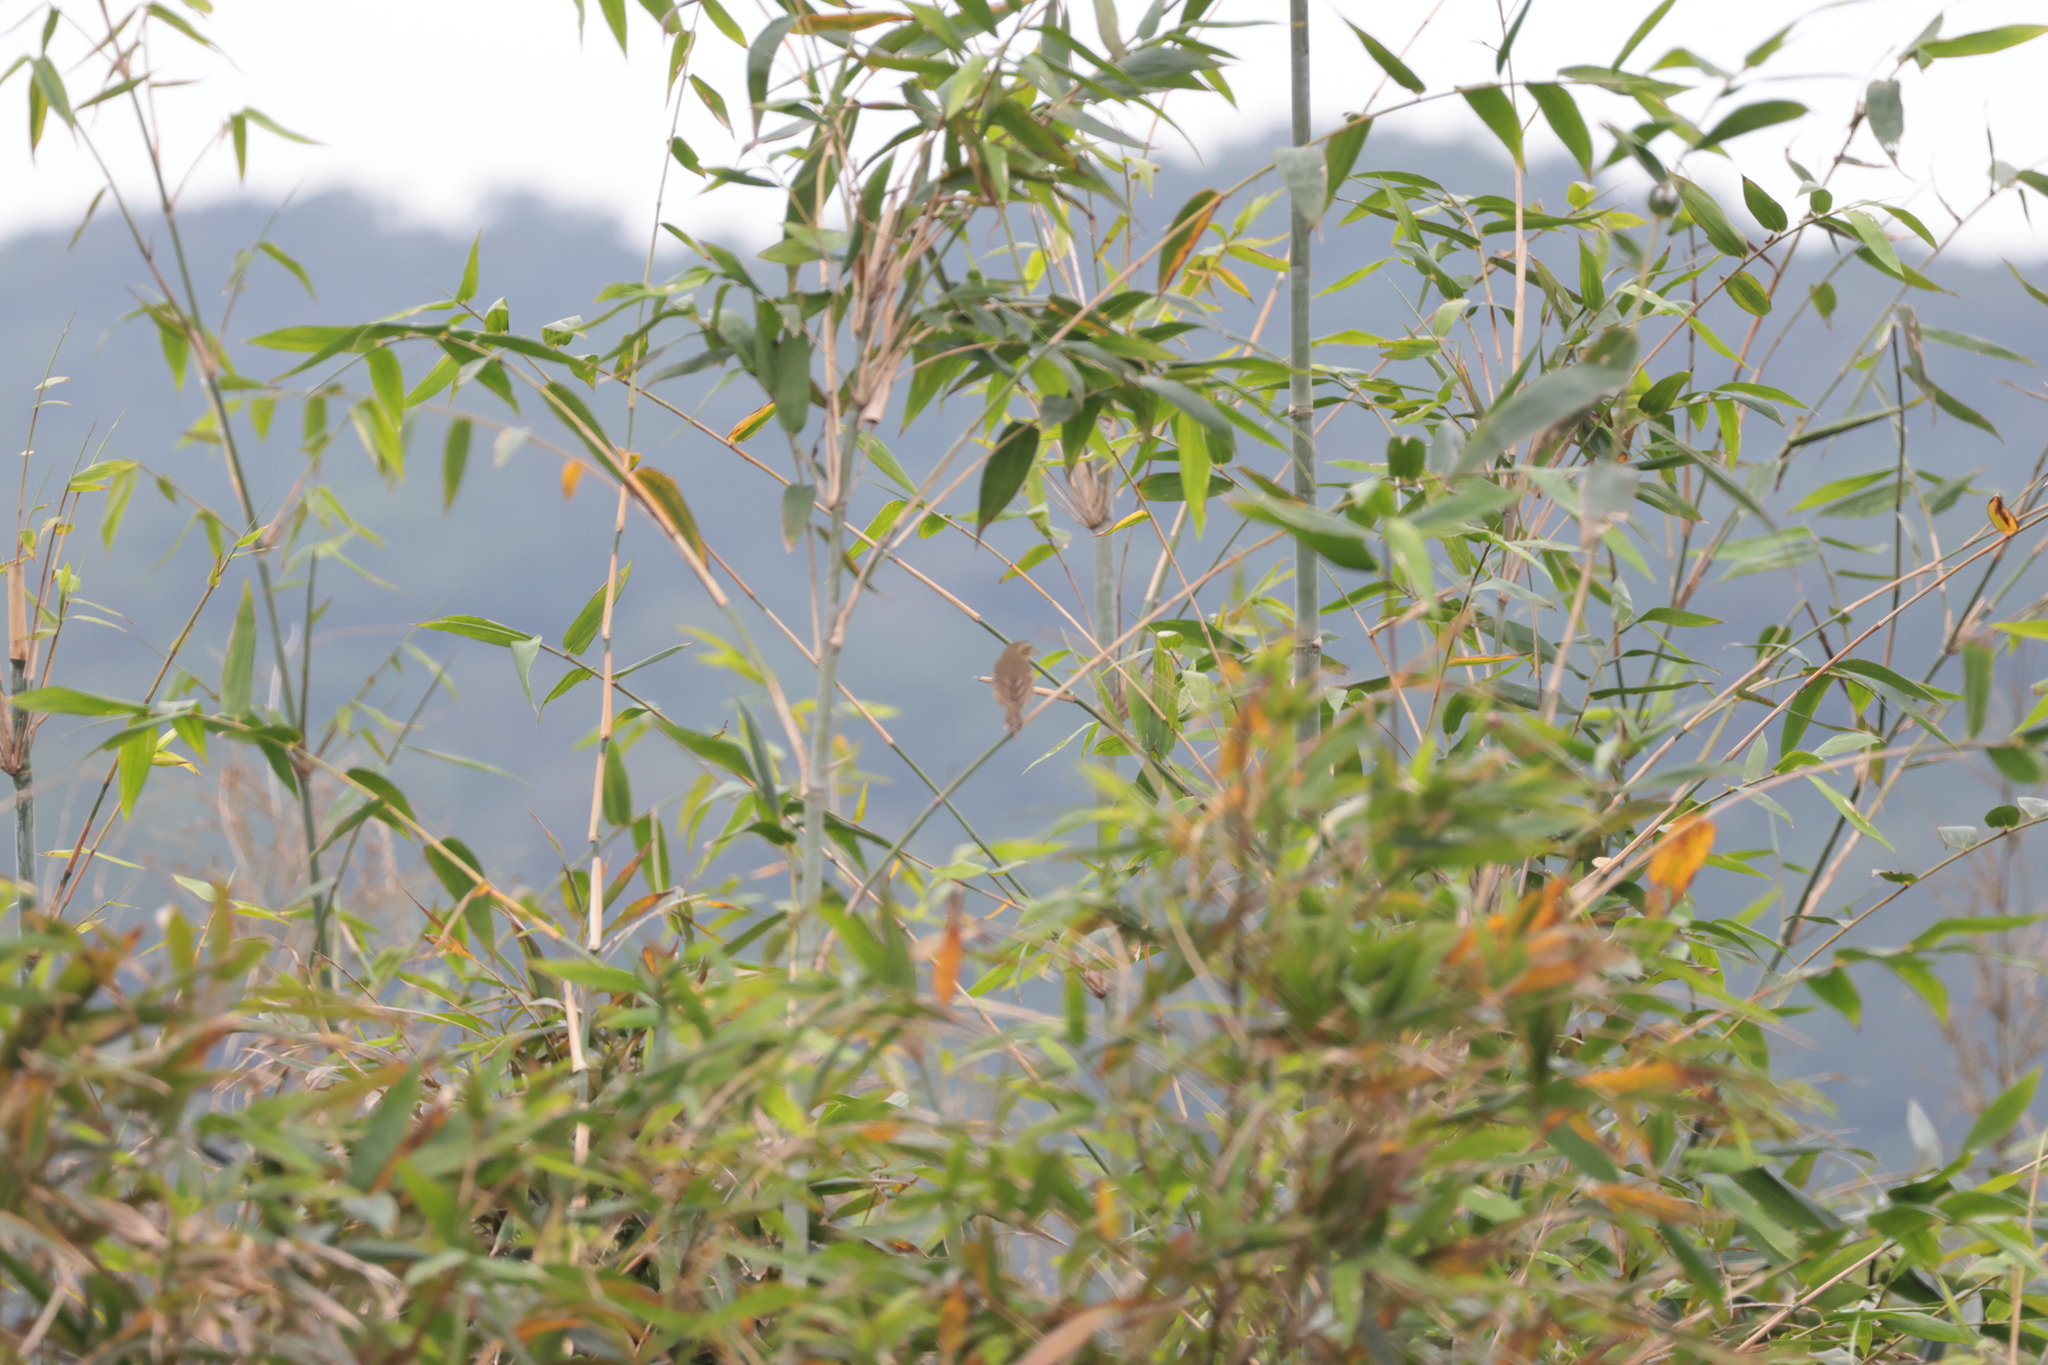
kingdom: Animalia
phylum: Chordata
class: Aves
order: Passeriformes
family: Motacillidae
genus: Anthus
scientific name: Anthus hodgsoni
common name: Olive-backed pipit
